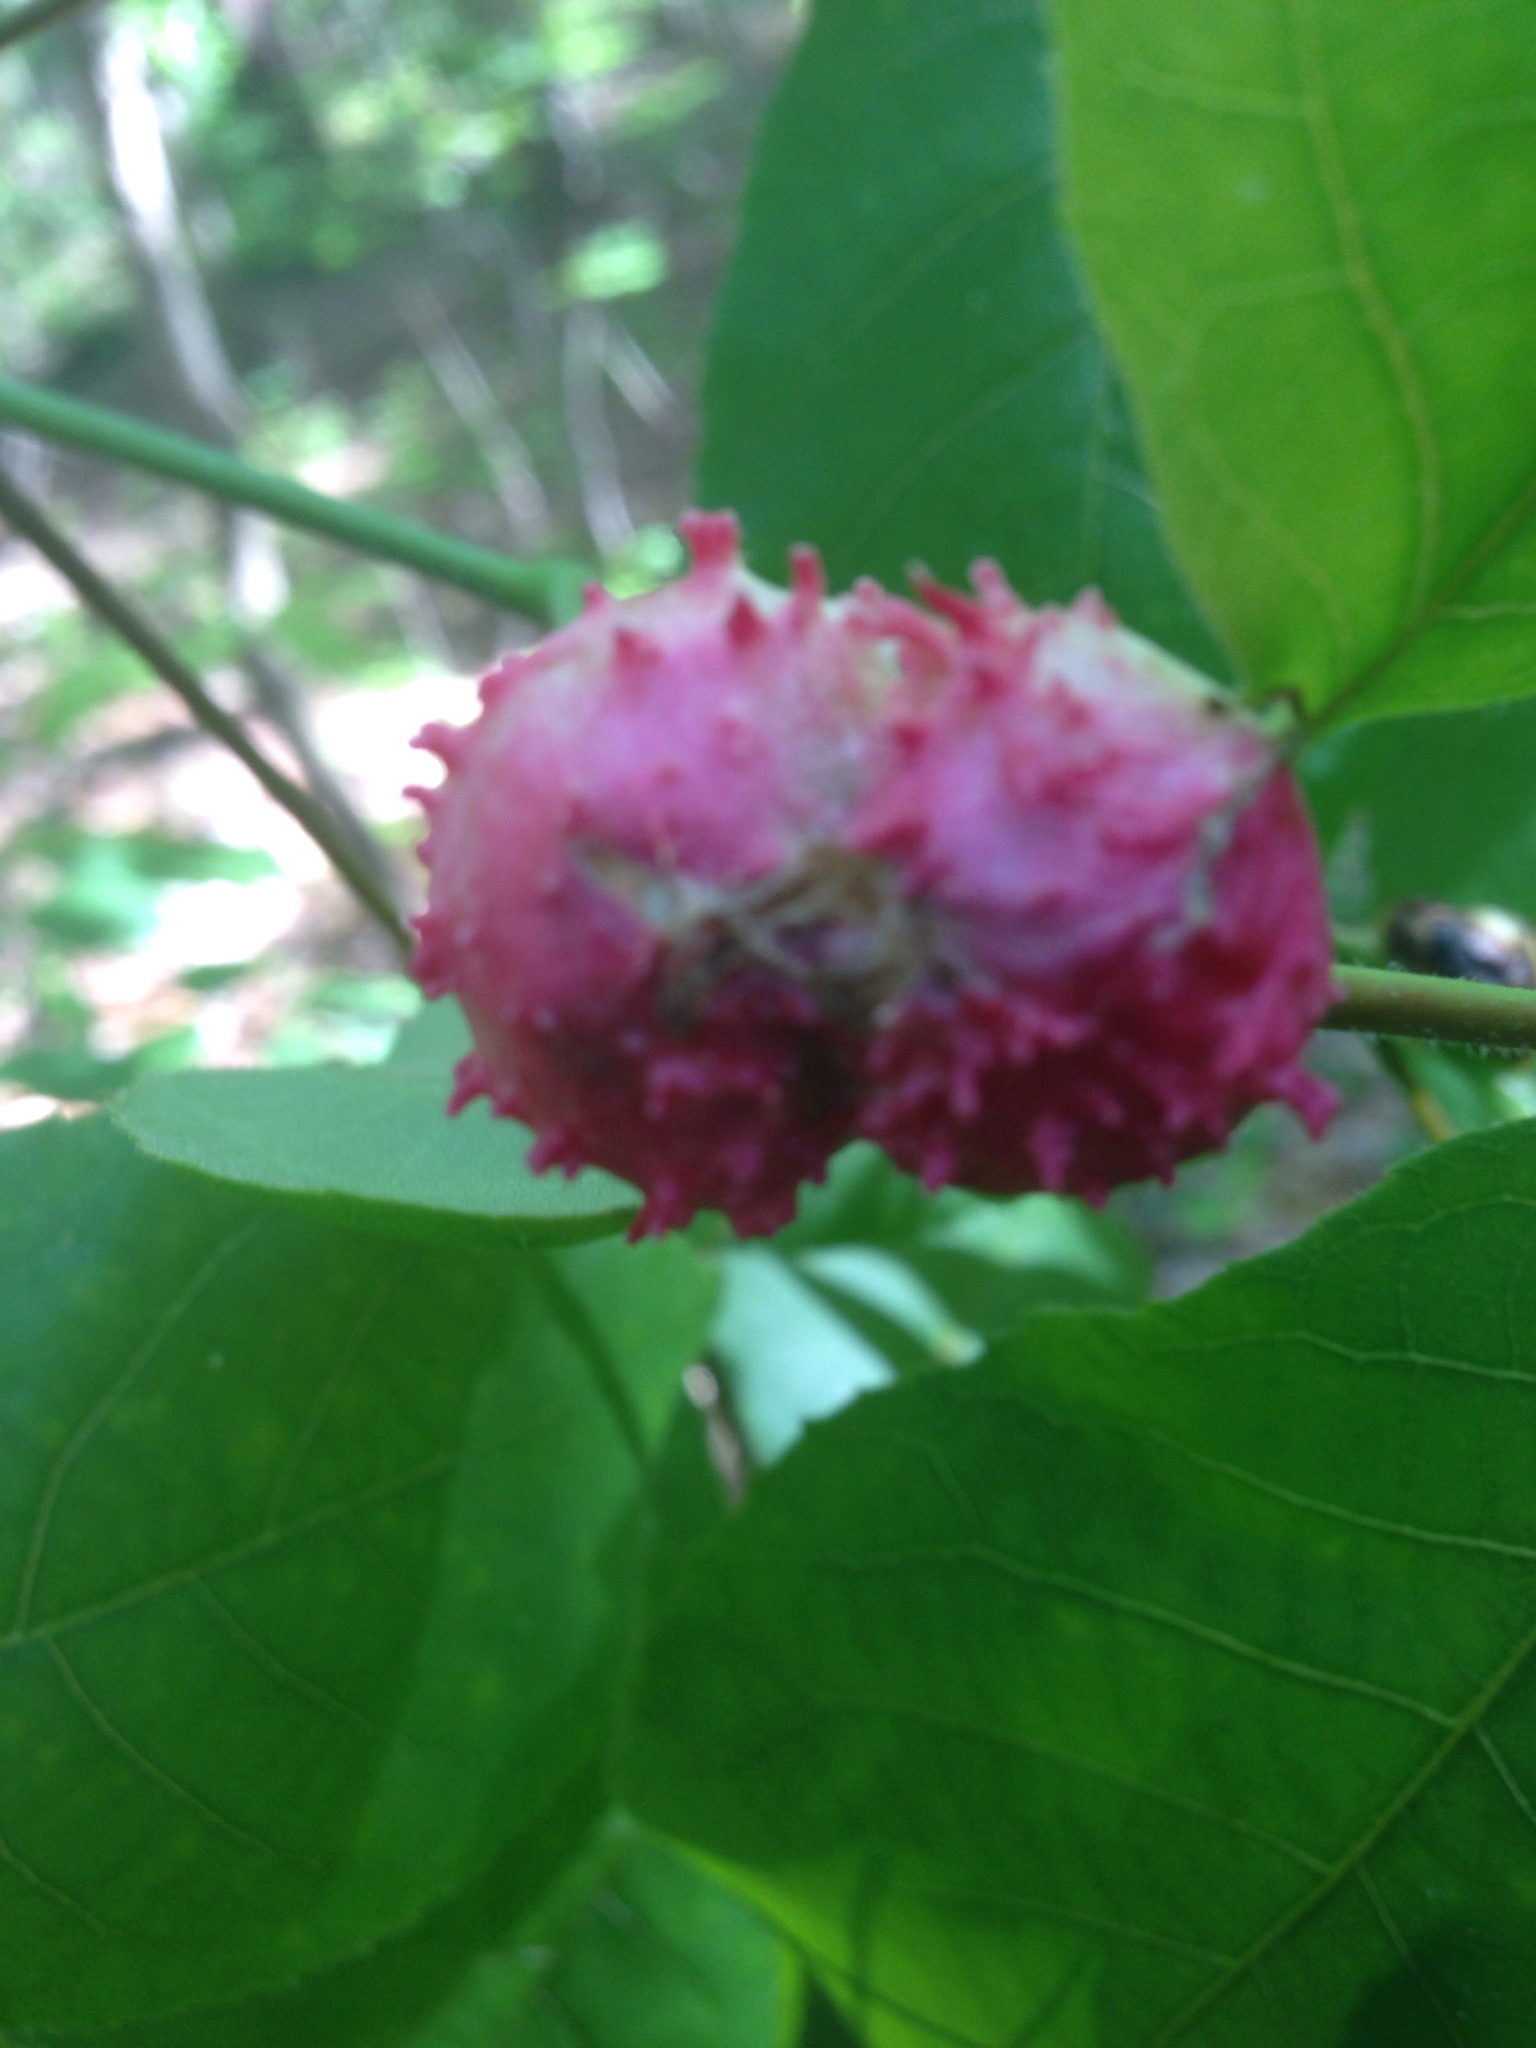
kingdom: Animalia
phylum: Arthropoda
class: Insecta
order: Hemiptera
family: Phylloxeridae
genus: Phylloxera
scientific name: Phylloxera spinosa
